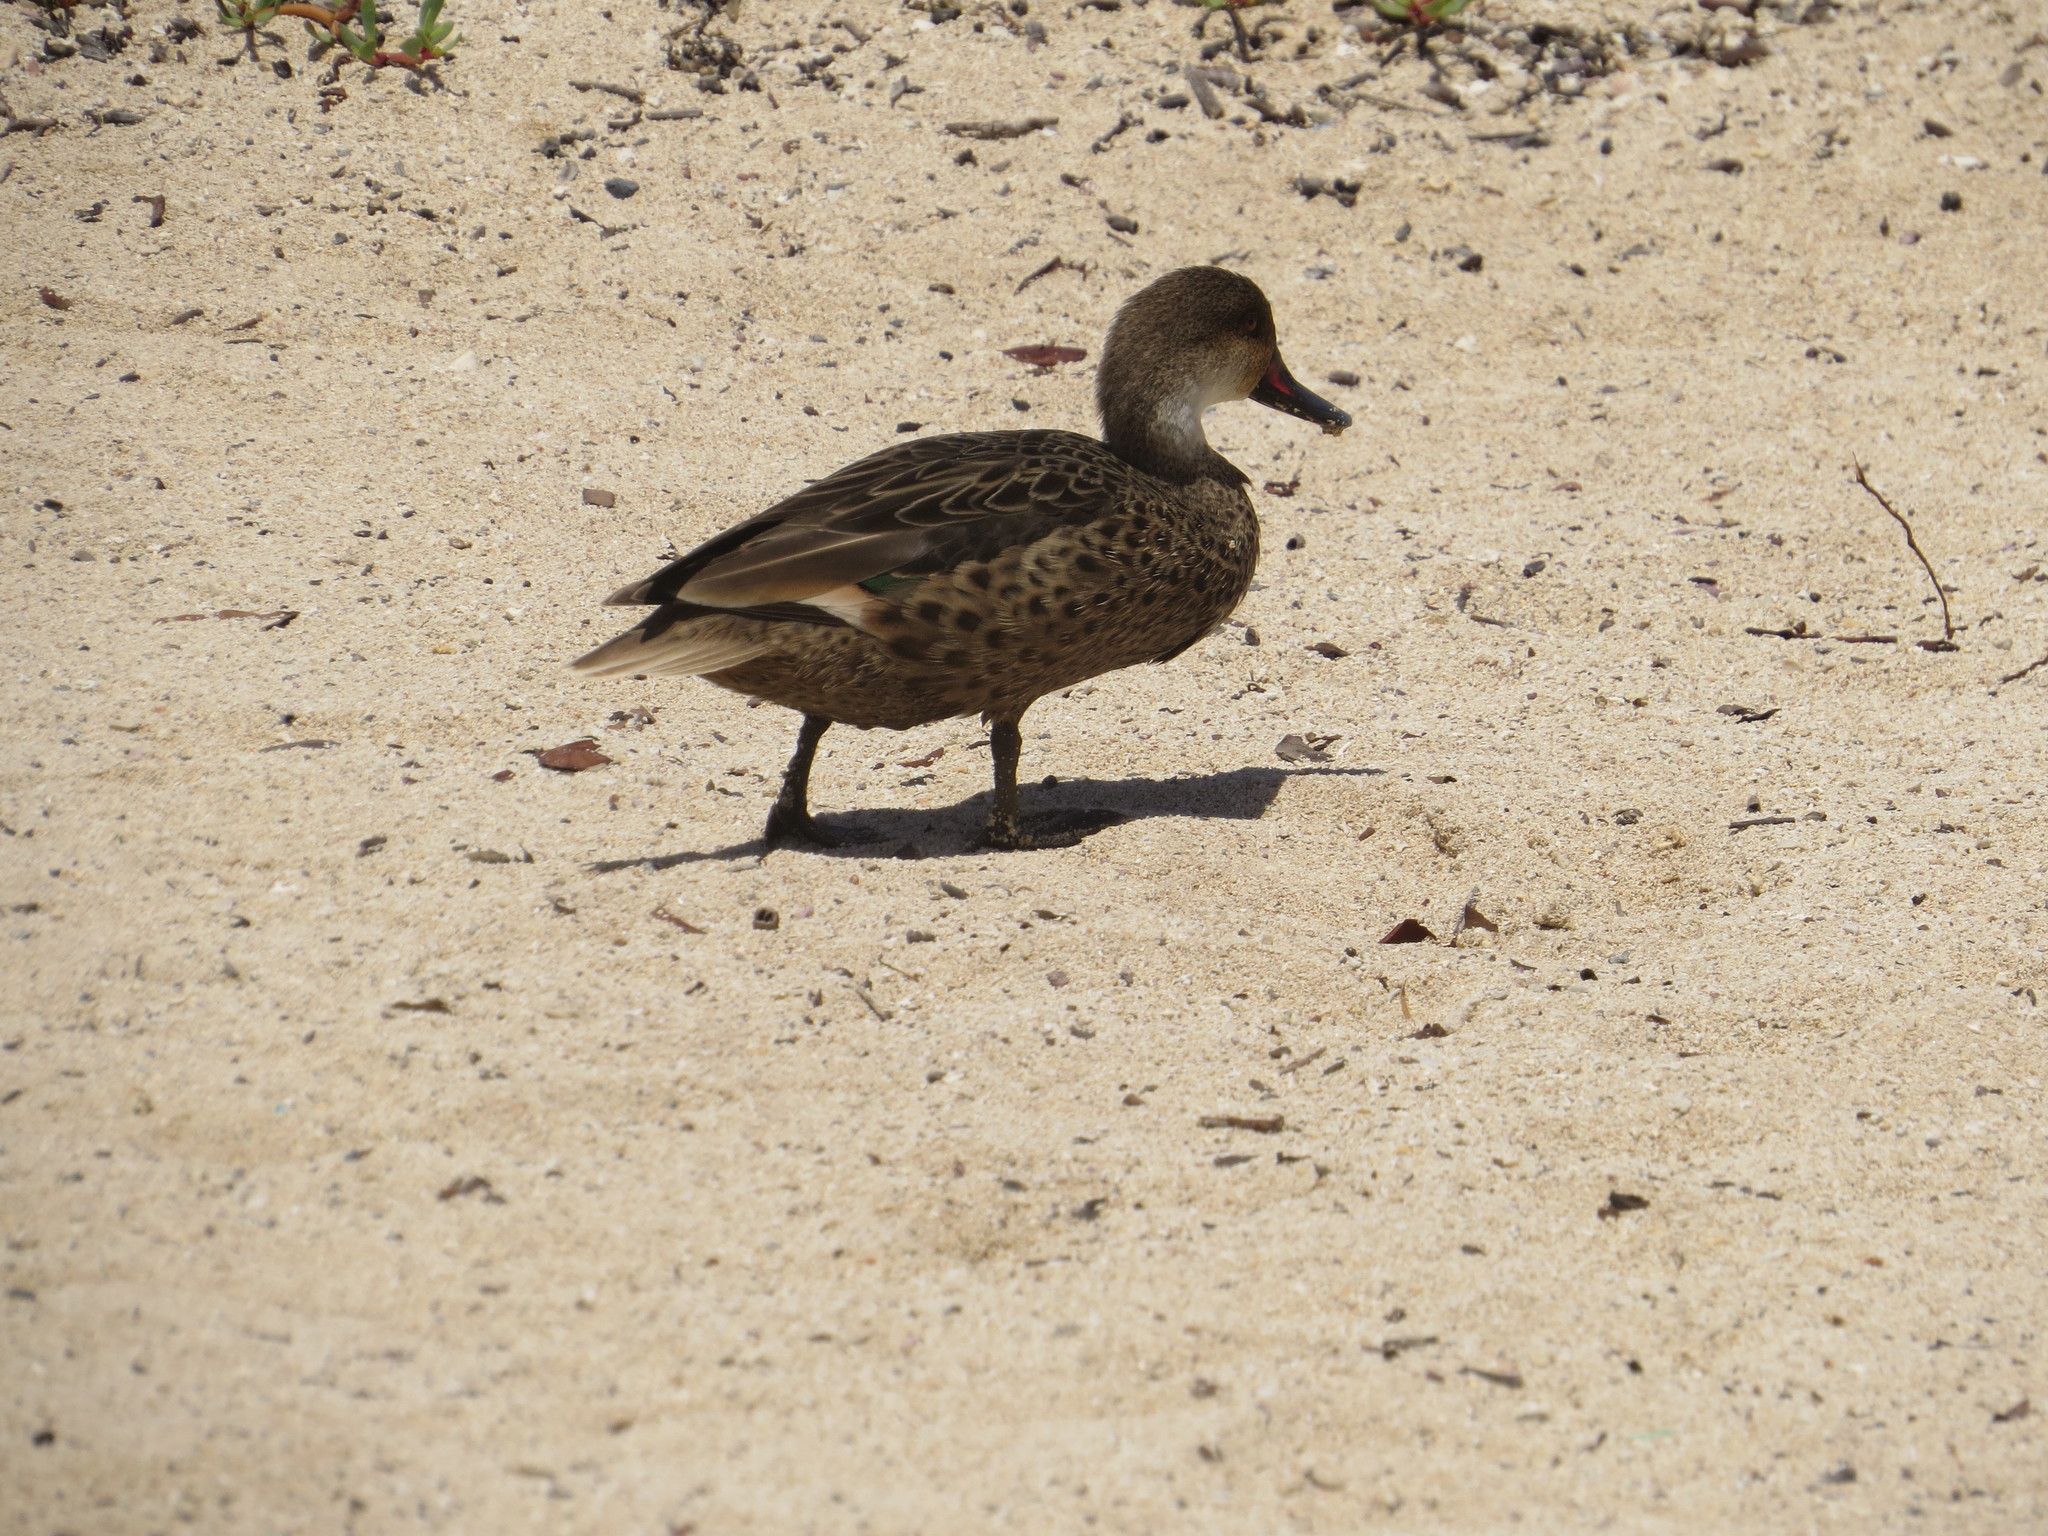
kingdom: Animalia
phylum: Chordata
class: Aves
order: Anseriformes
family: Anatidae
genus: Anas
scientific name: Anas bahamensis
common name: White-cheeked pintail
